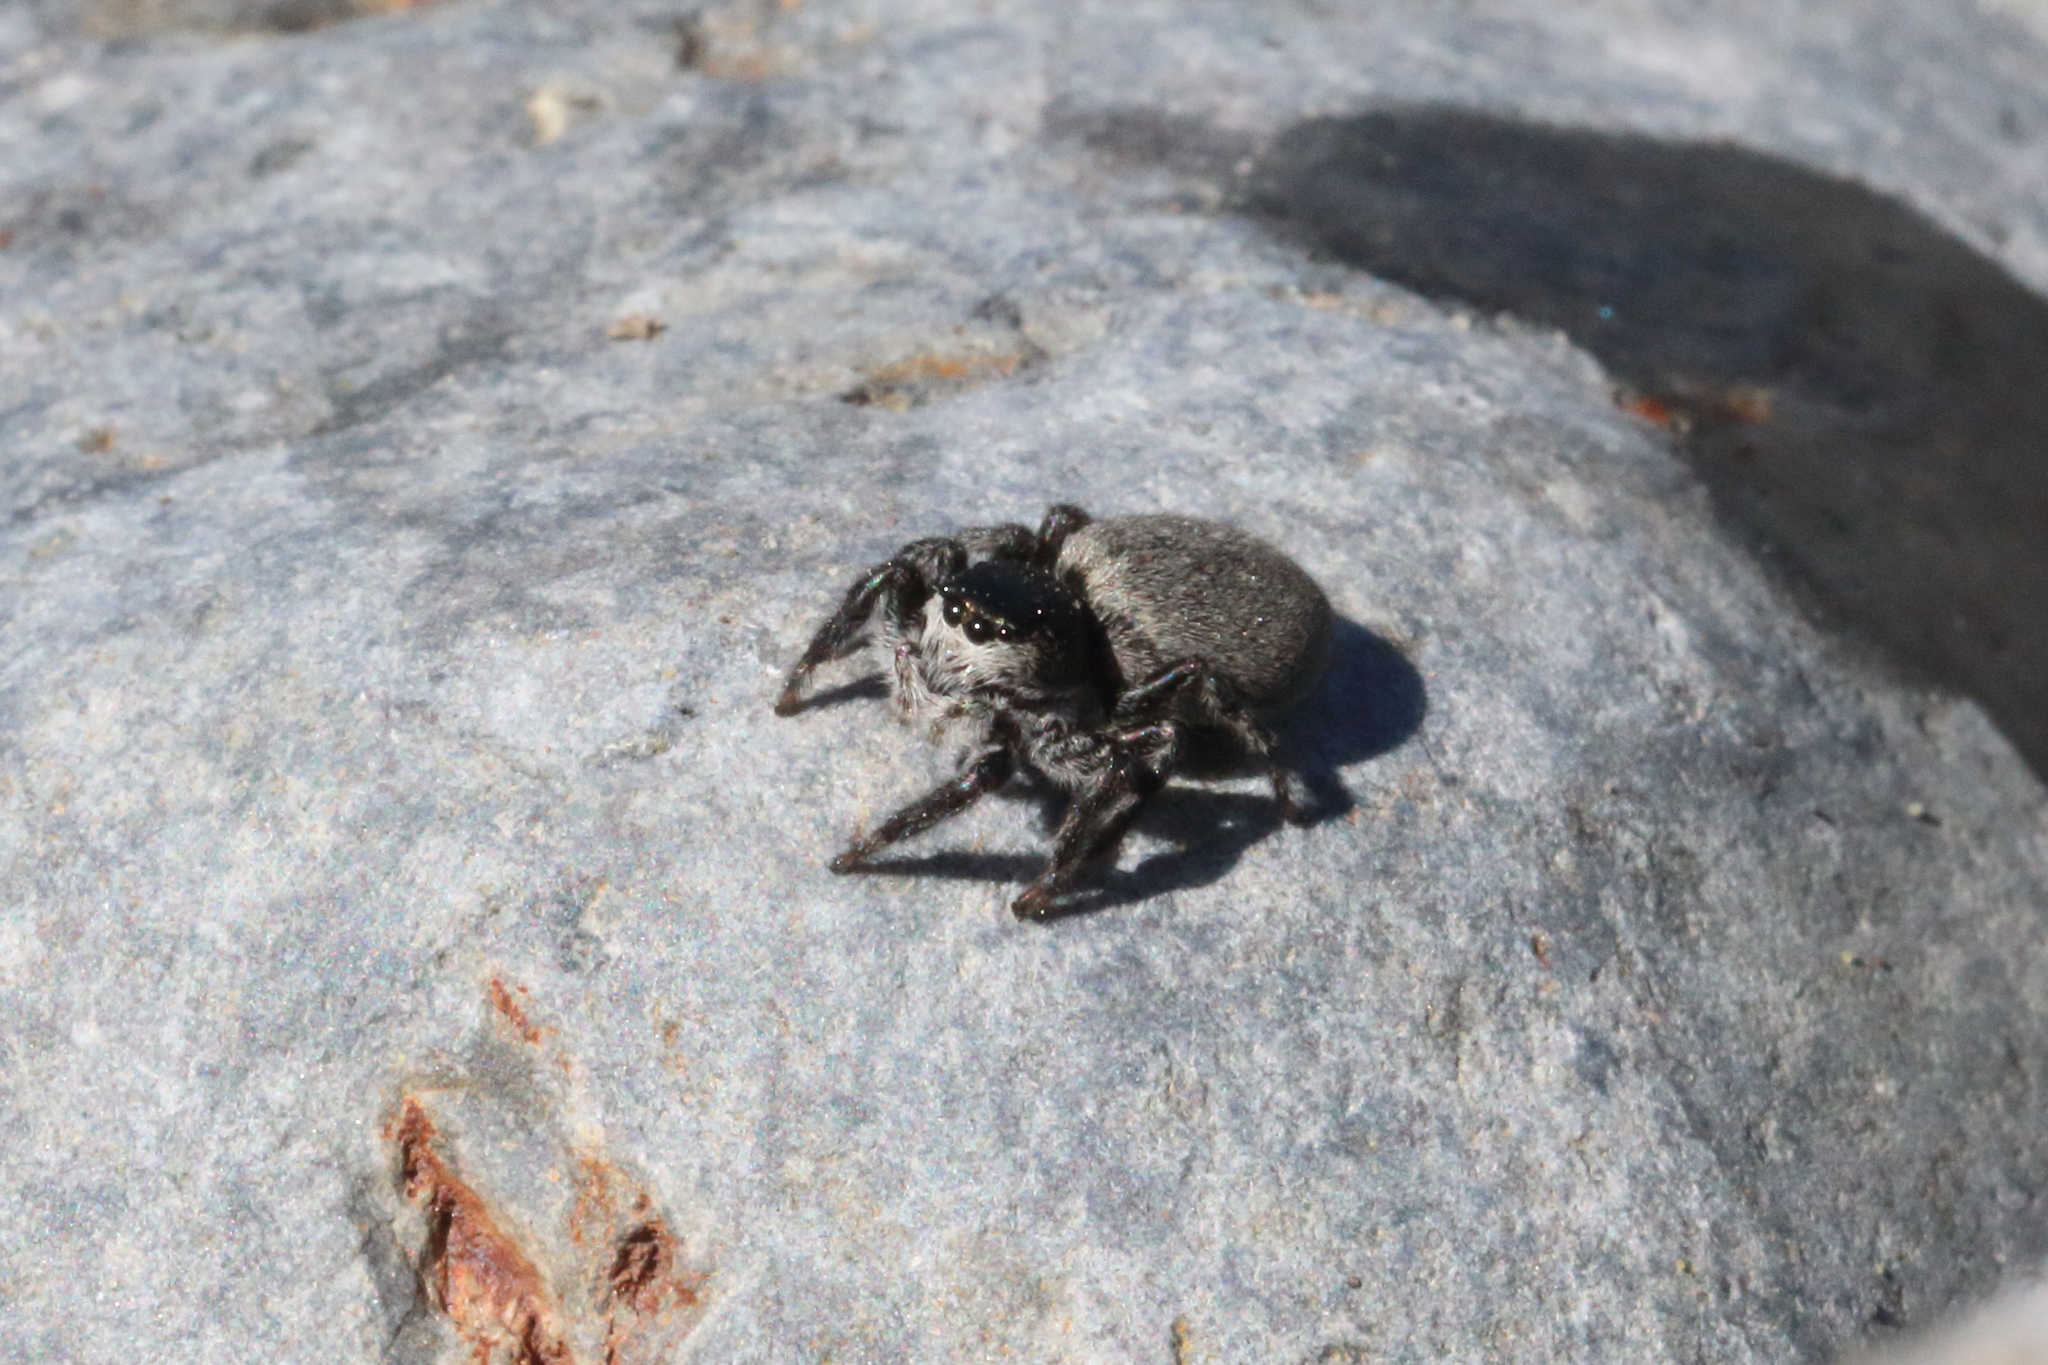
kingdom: Animalia
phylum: Arthropoda
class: Arachnida
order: Araneae
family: Salticidae
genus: Marpissa
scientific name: Marpissa marina
